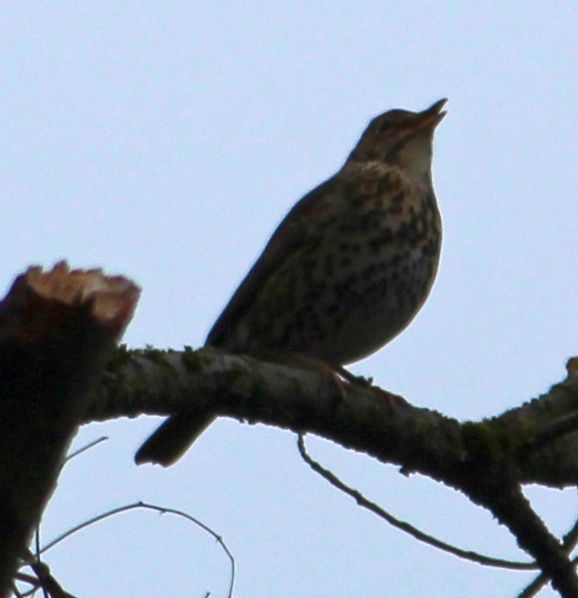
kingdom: Animalia
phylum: Chordata
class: Aves
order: Passeriformes
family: Turdidae
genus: Turdus
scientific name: Turdus philomelos
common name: Song thrush
